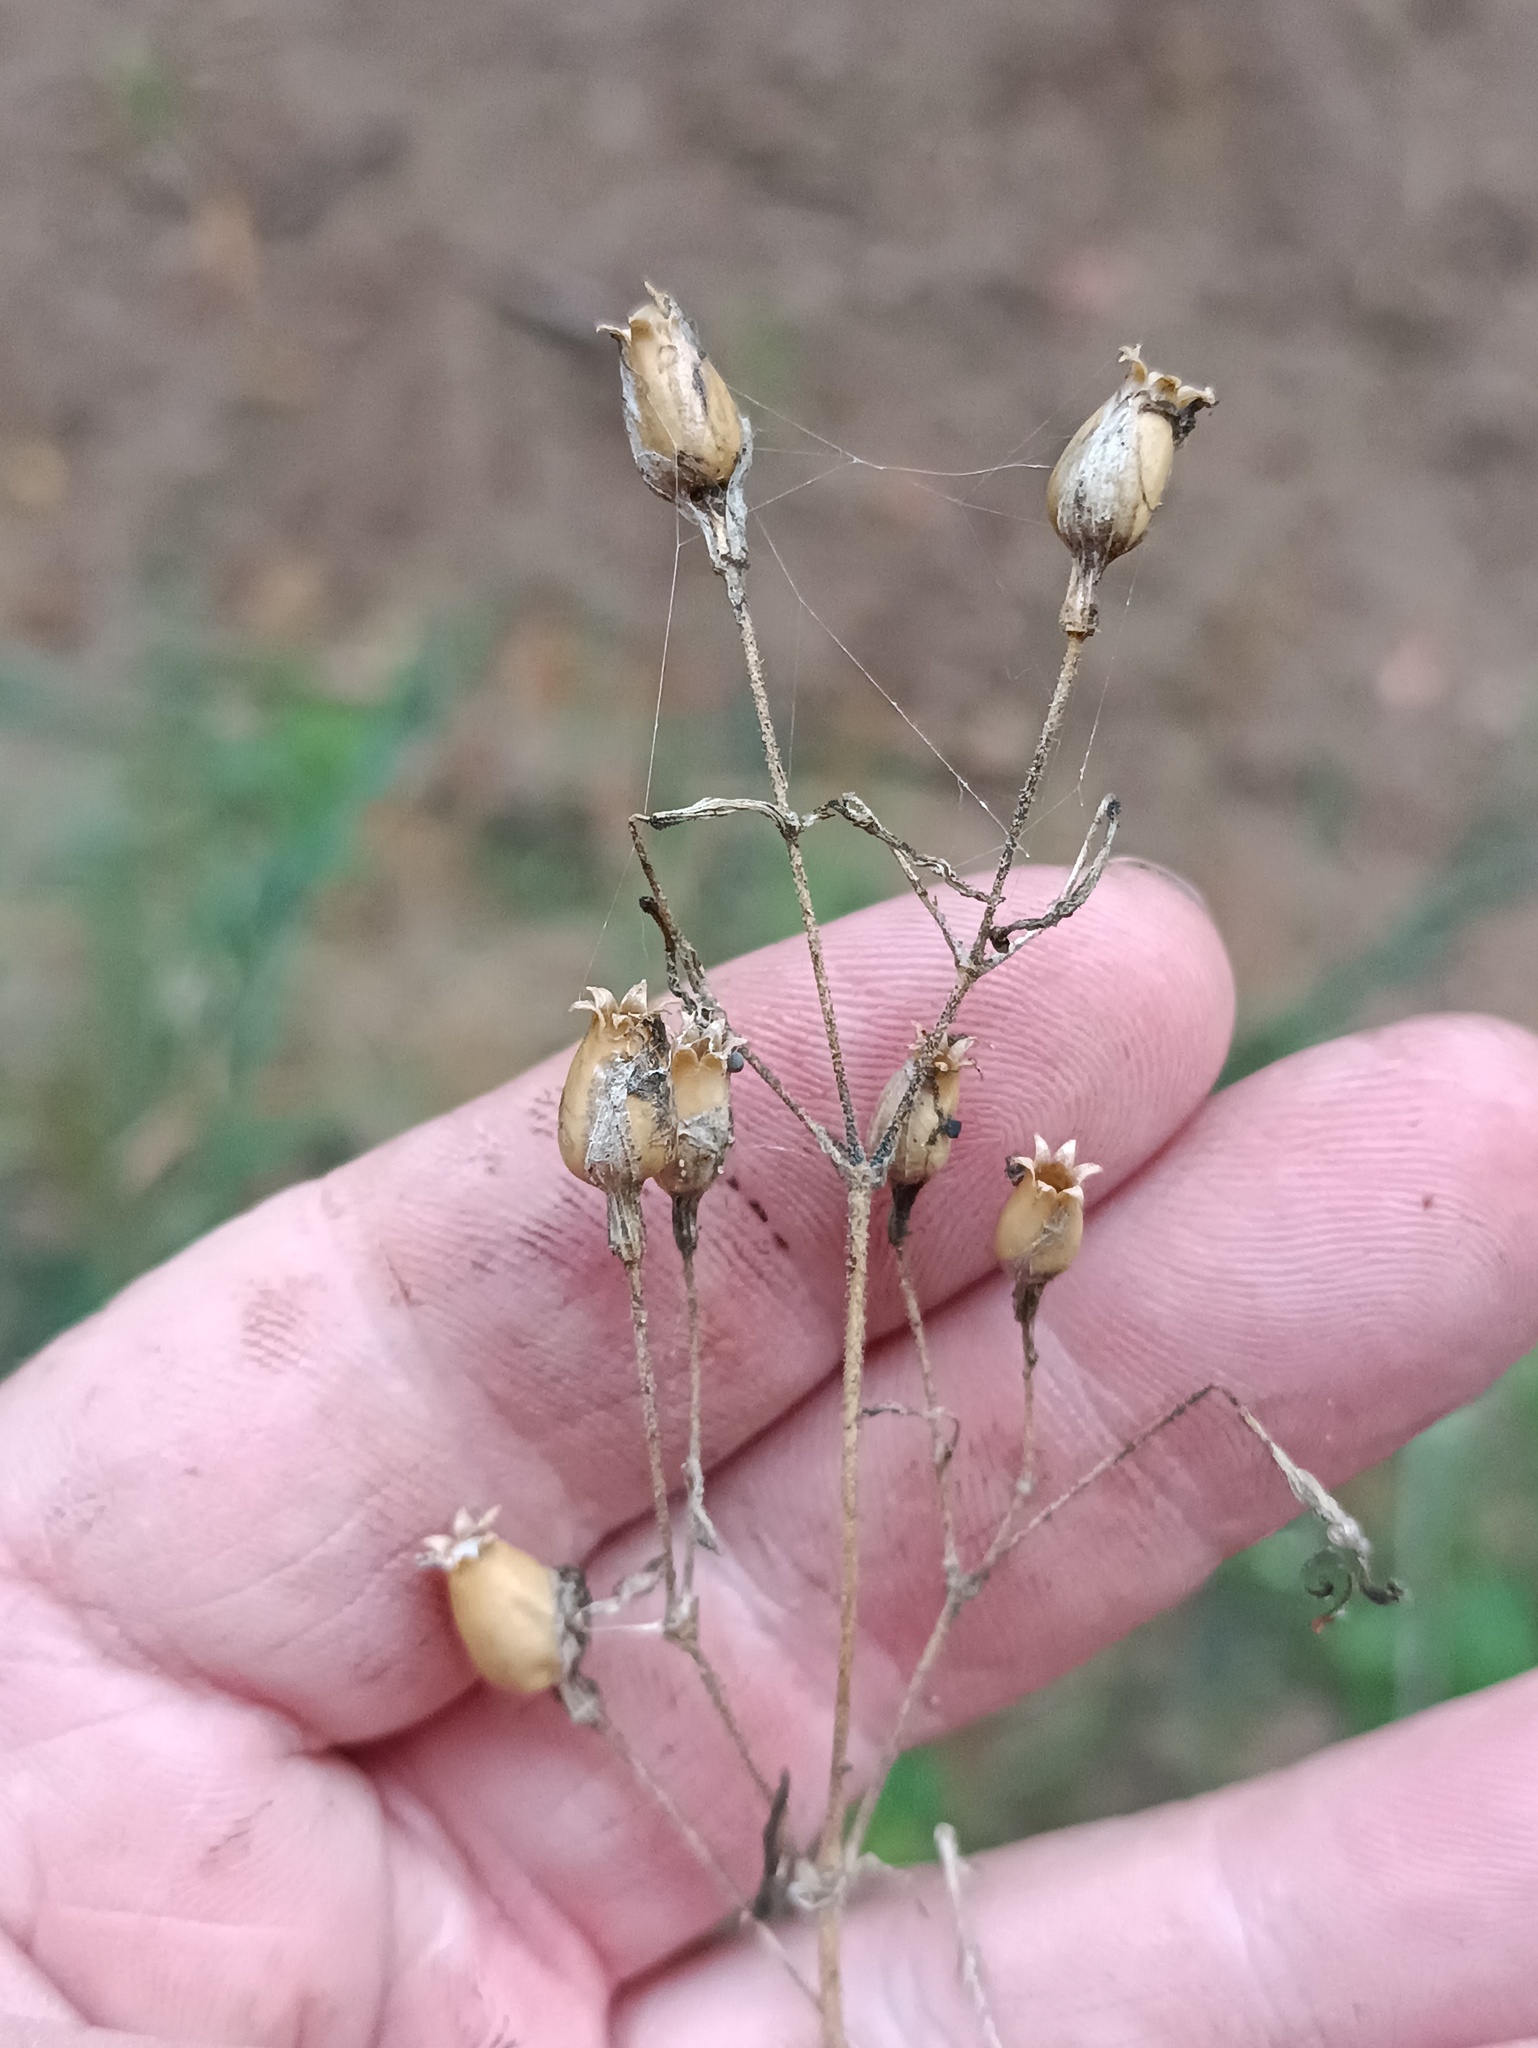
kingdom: Plantae
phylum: Tracheophyta
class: Magnoliopsida
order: Caryophyllales
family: Caryophyllaceae
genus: Silene
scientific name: Silene nutans
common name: Nottingham catchfly
